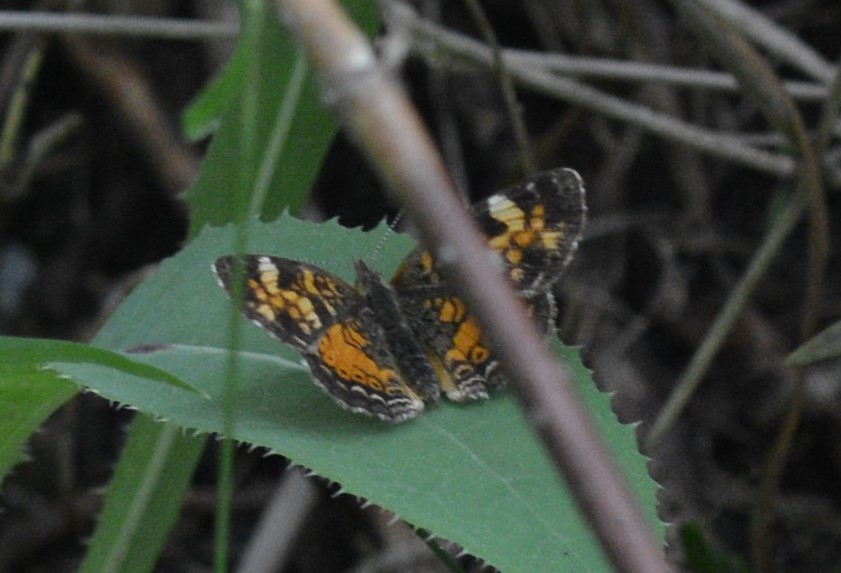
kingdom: Animalia
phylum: Arthropoda
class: Insecta
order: Lepidoptera
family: Nymphalidae
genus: Phyciodes
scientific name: Phyciodes tharos
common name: Pearl crescent
